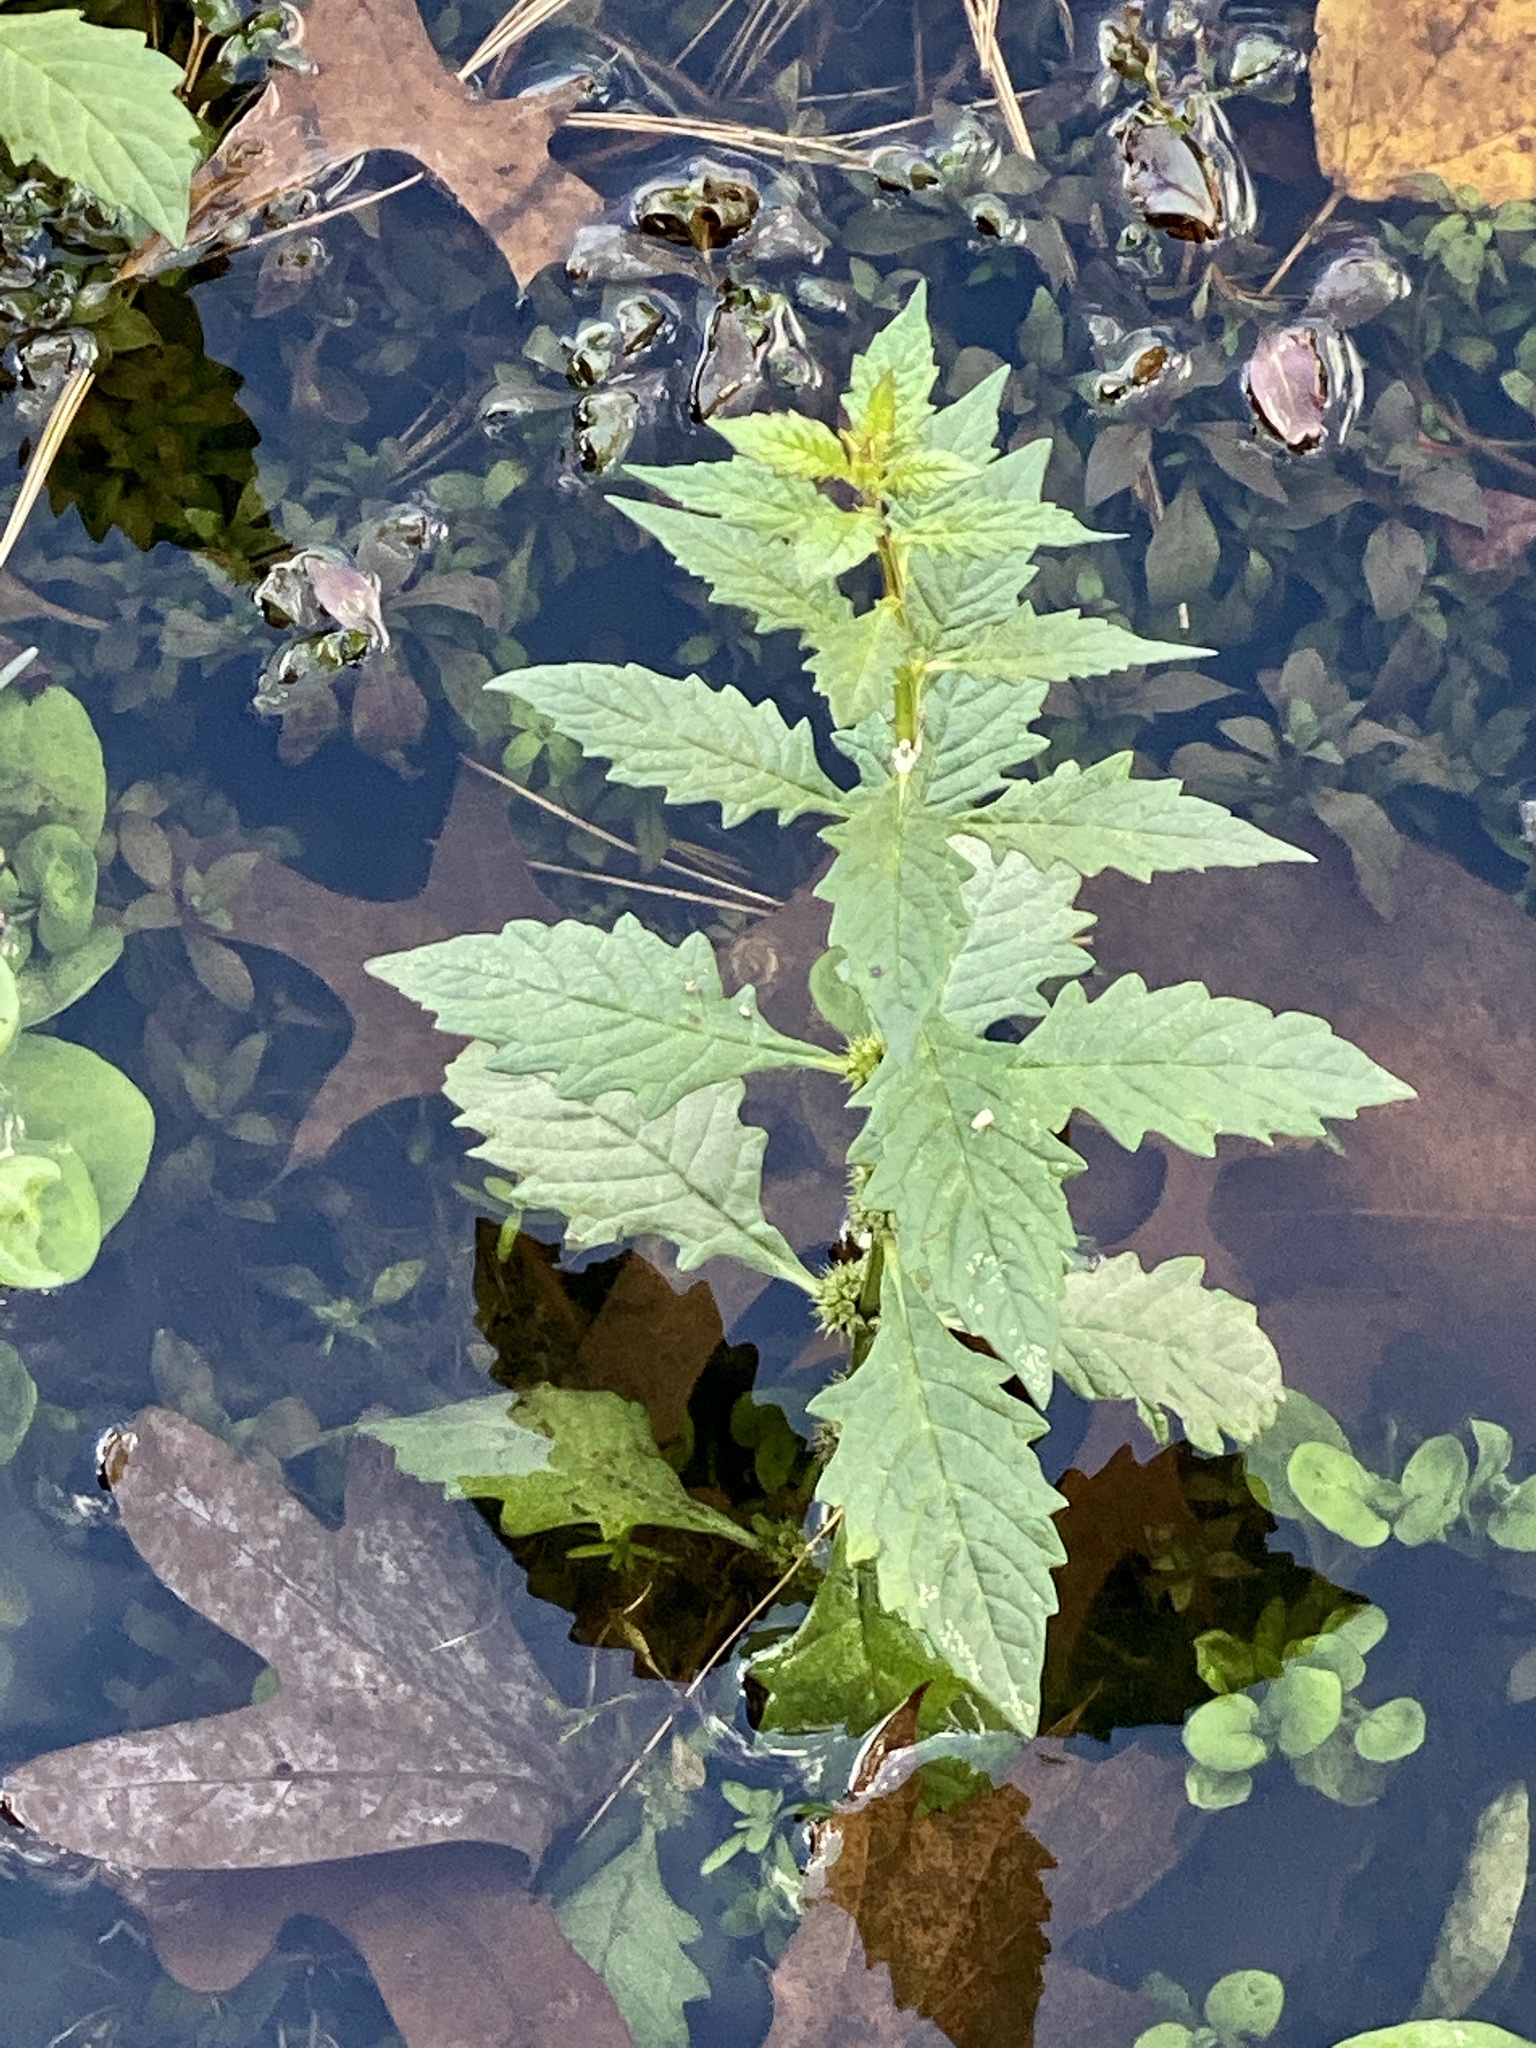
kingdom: Plantae
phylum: Tracheophyta
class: Magnoliopsida
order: Lamiales
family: Lamiaceae
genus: Lycopus
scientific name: Lycopus europaeus
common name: European bugleweed
